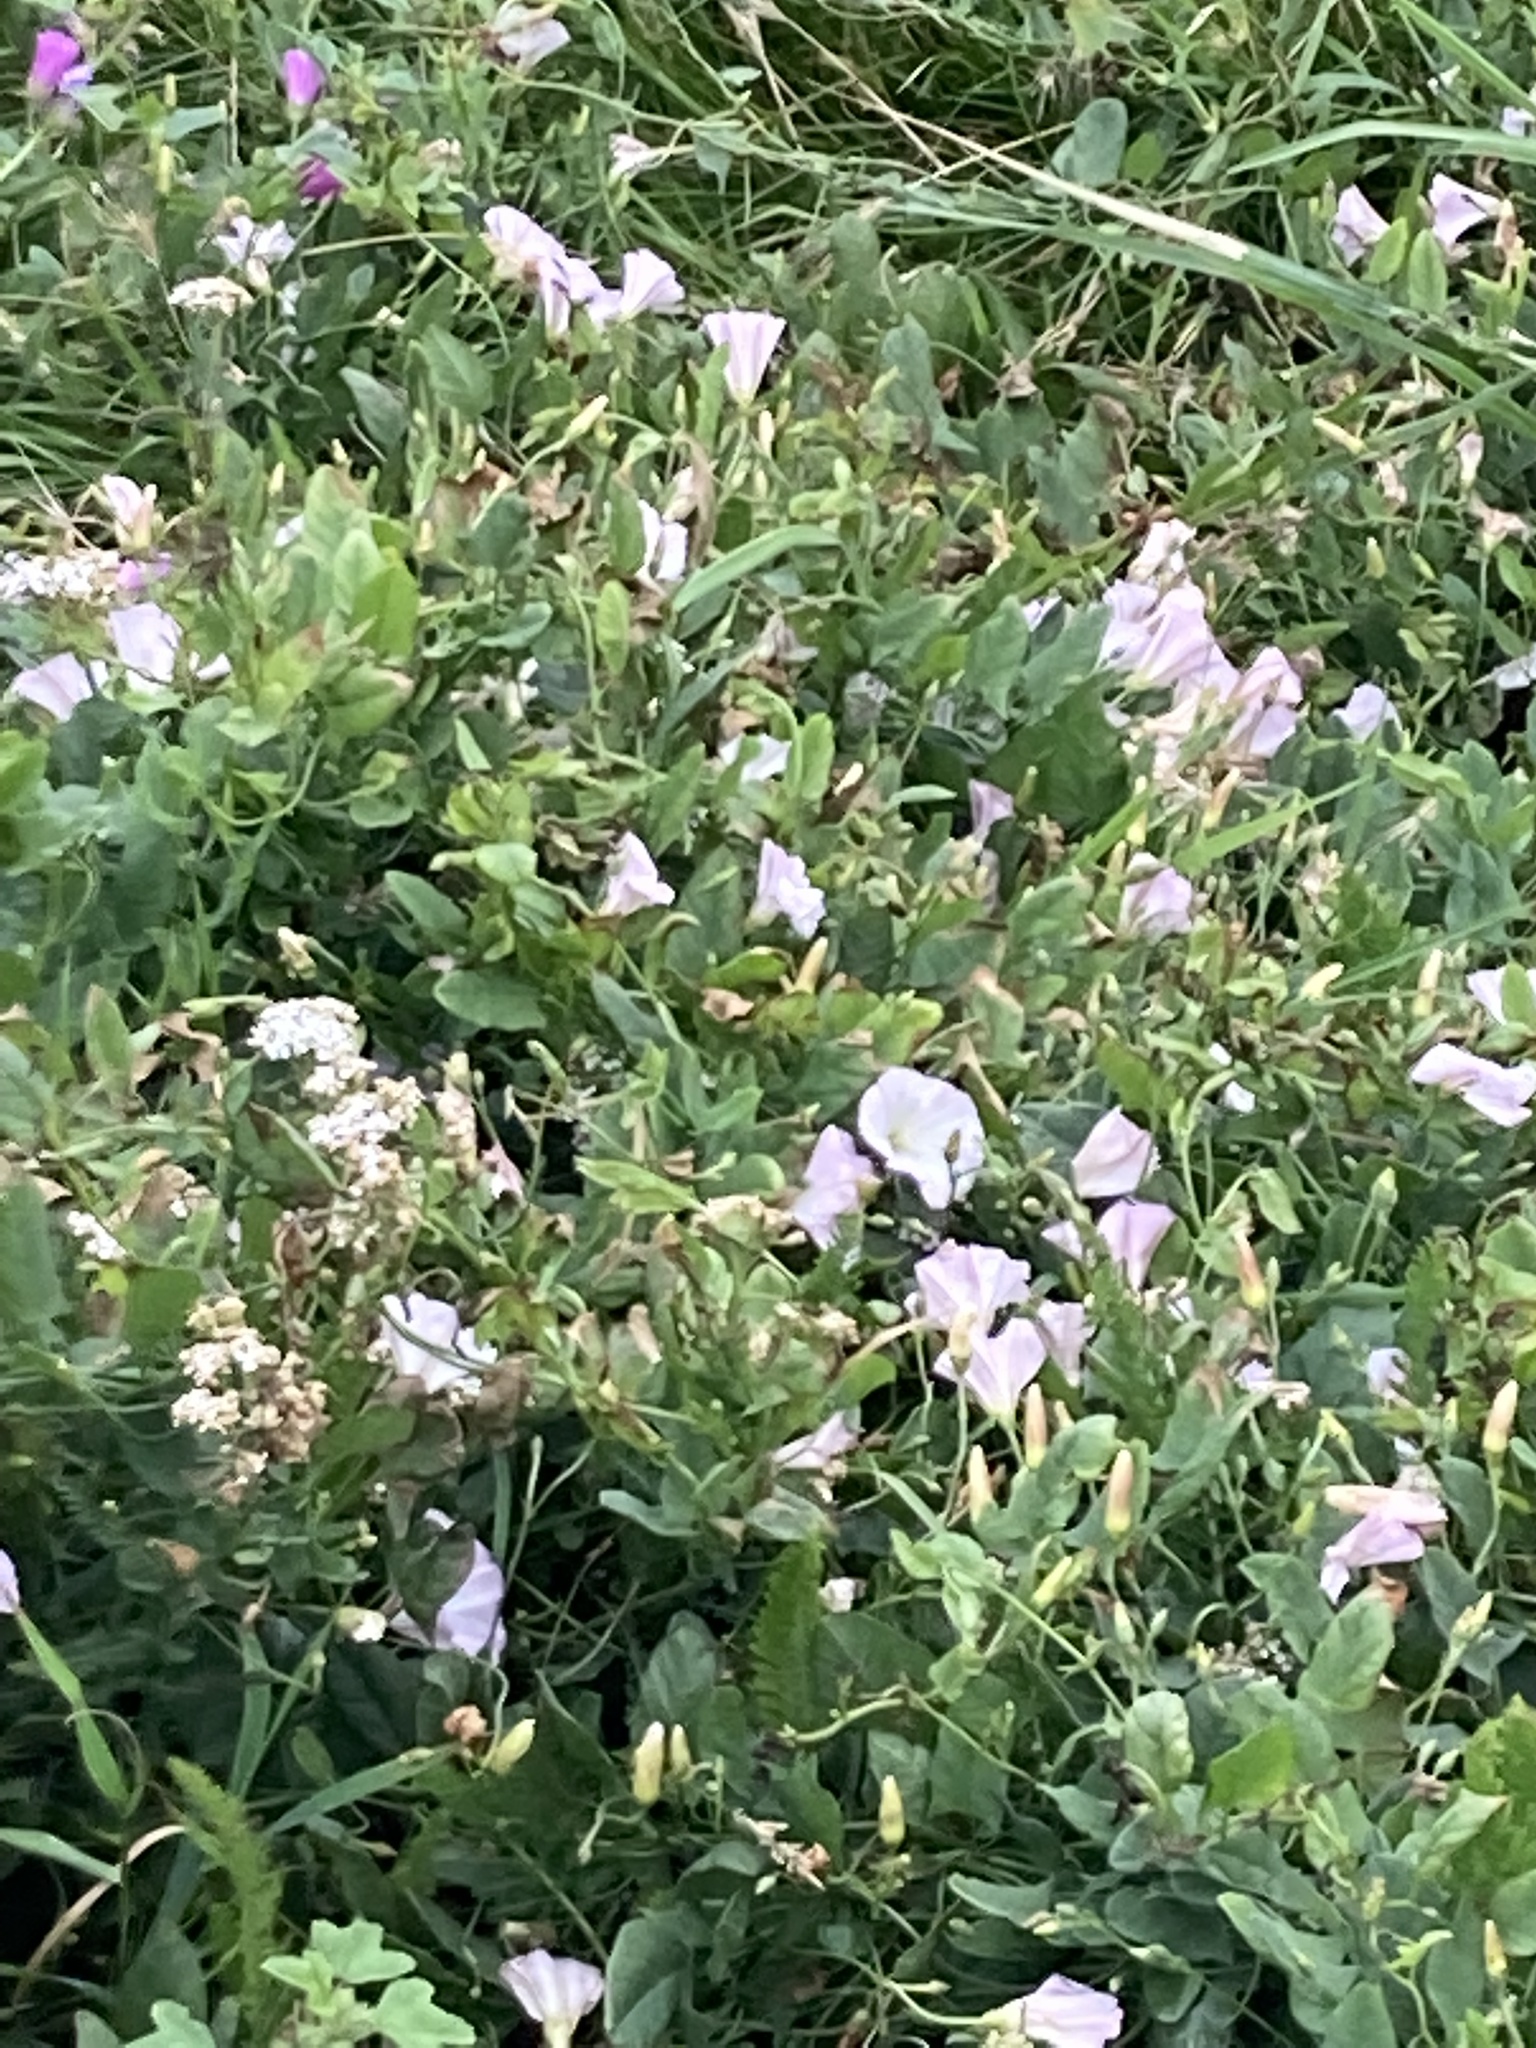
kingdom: Plantae
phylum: Tracheophyta
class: Magnoliopsida
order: Solanales
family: Convolvulaceae
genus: Convolvulus
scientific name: Convolvulus arvensis
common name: Field bindweed
